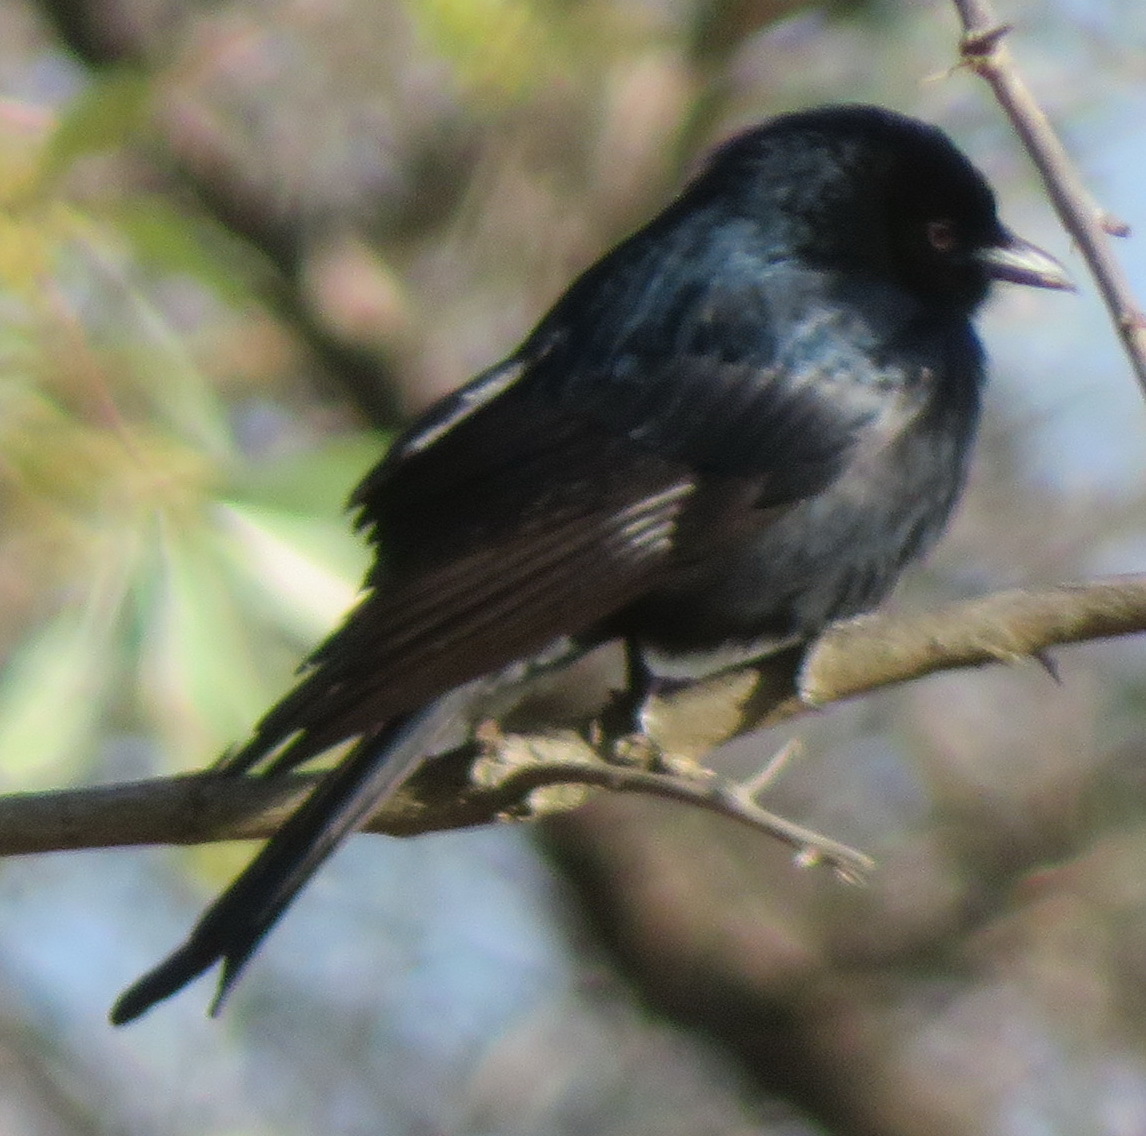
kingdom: Animalia
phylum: Chordata
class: Aves
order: Passeriformes
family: Dicruridae
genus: Dicrurus
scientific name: Dicrurus adsimilis
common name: Fork-tailed drongo
